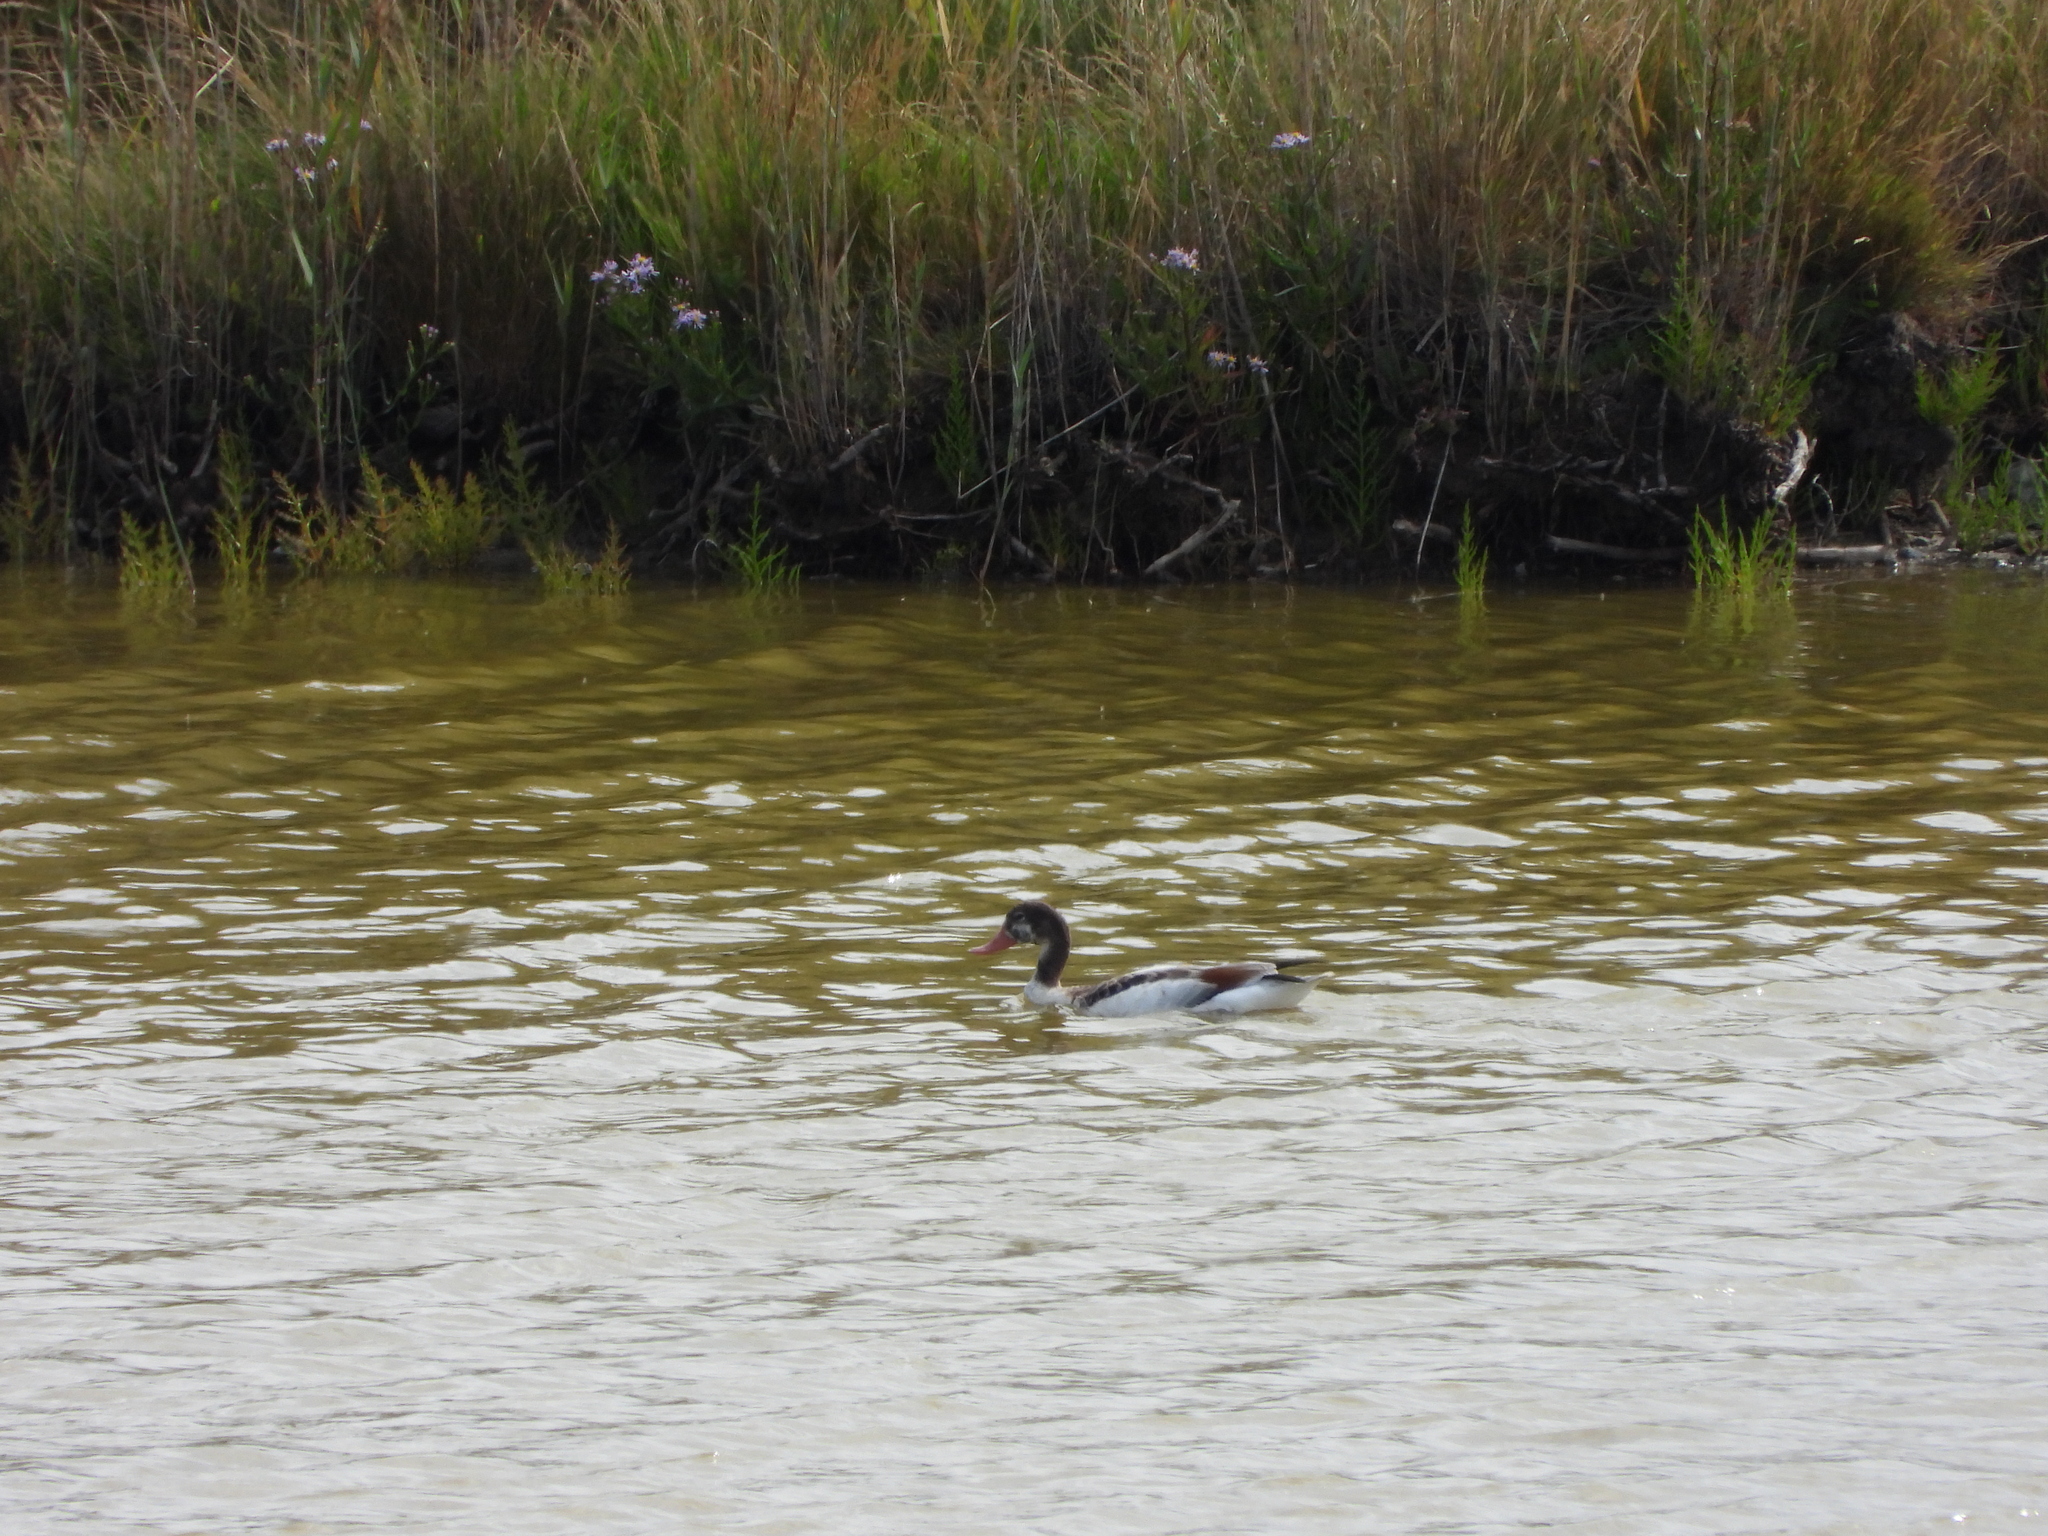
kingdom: Animalia
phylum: Chordata
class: Aves
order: Anseriformes
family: Anatidae
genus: Tadorna
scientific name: Tadorna tadorna
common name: Common shelduck
